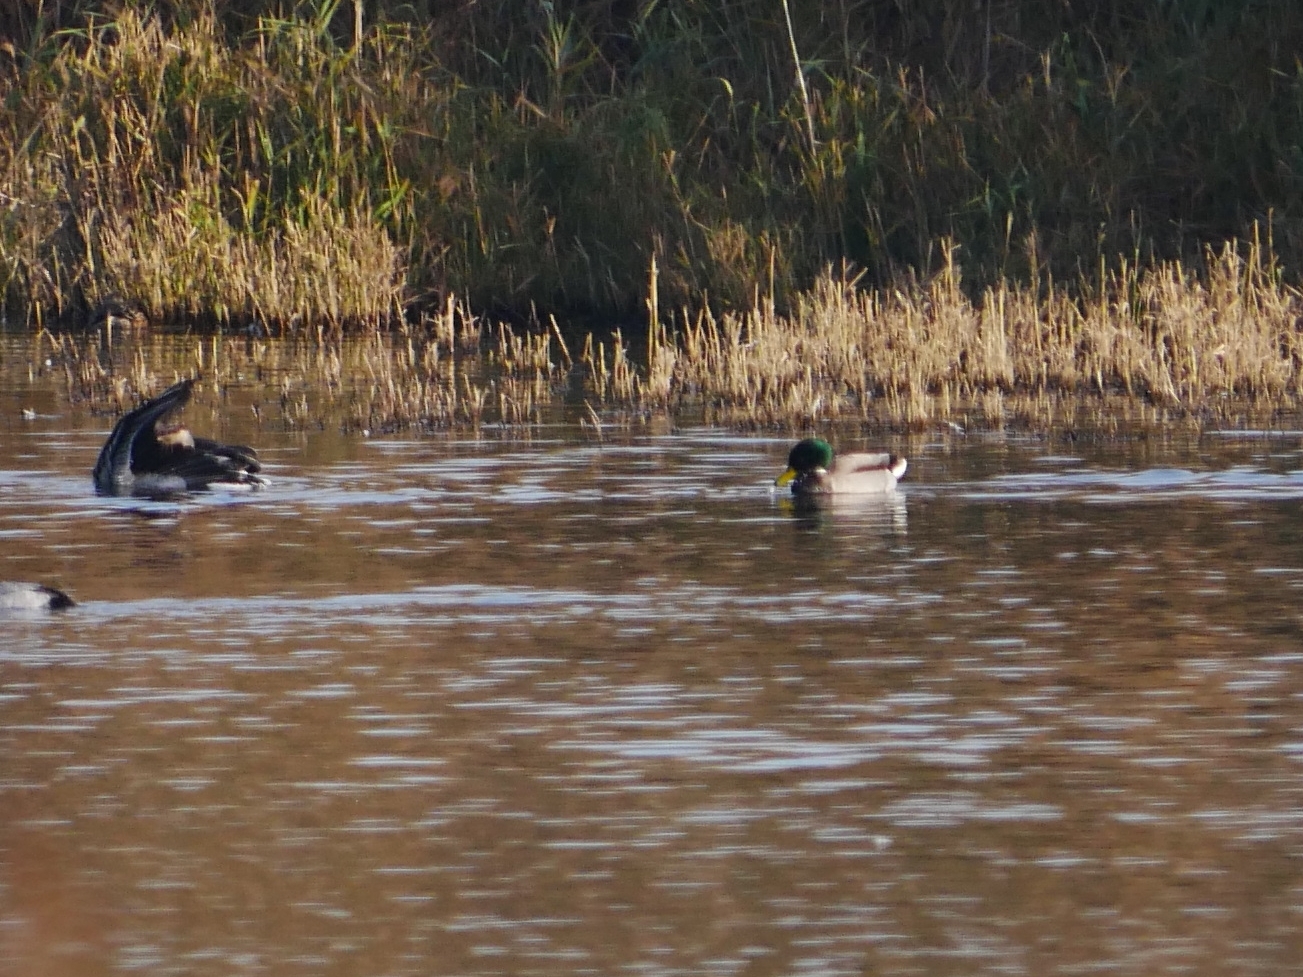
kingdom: Animalia
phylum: Chordata
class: Aves
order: Anseriformes
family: Anatidae
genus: Anas
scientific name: Anas platyrhynchos
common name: Mallard
